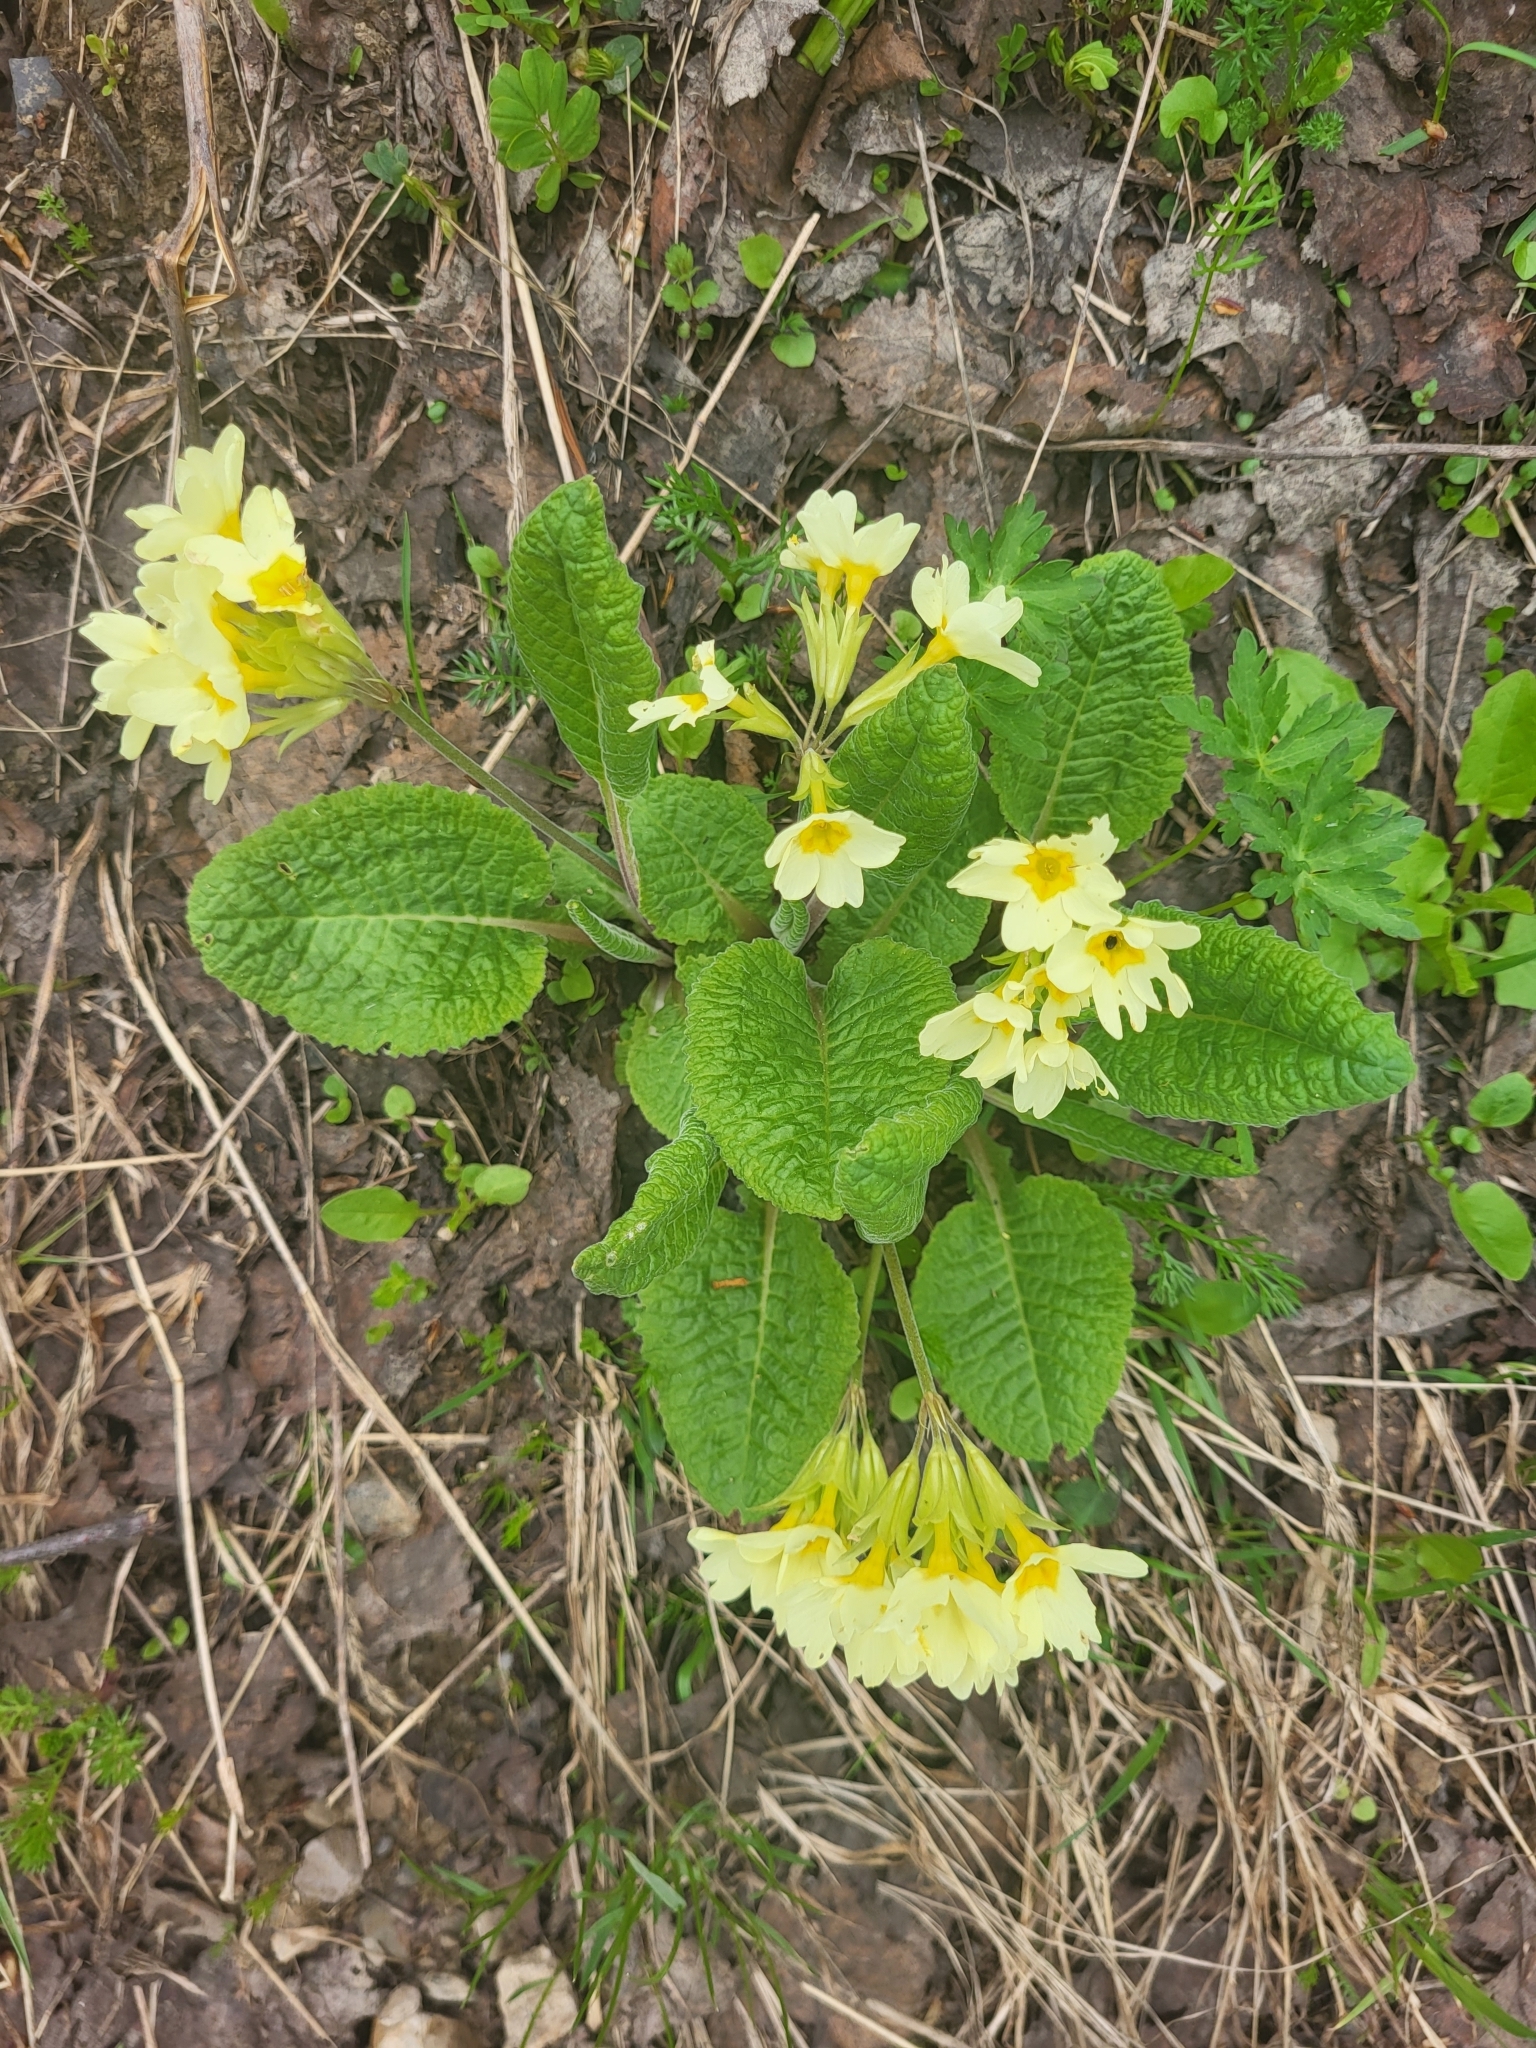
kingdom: Plantae
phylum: Tracheophyta
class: Magnoliopsida
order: Ericales
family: Primulaceae
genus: Primula
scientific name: Primula ruprechtii
